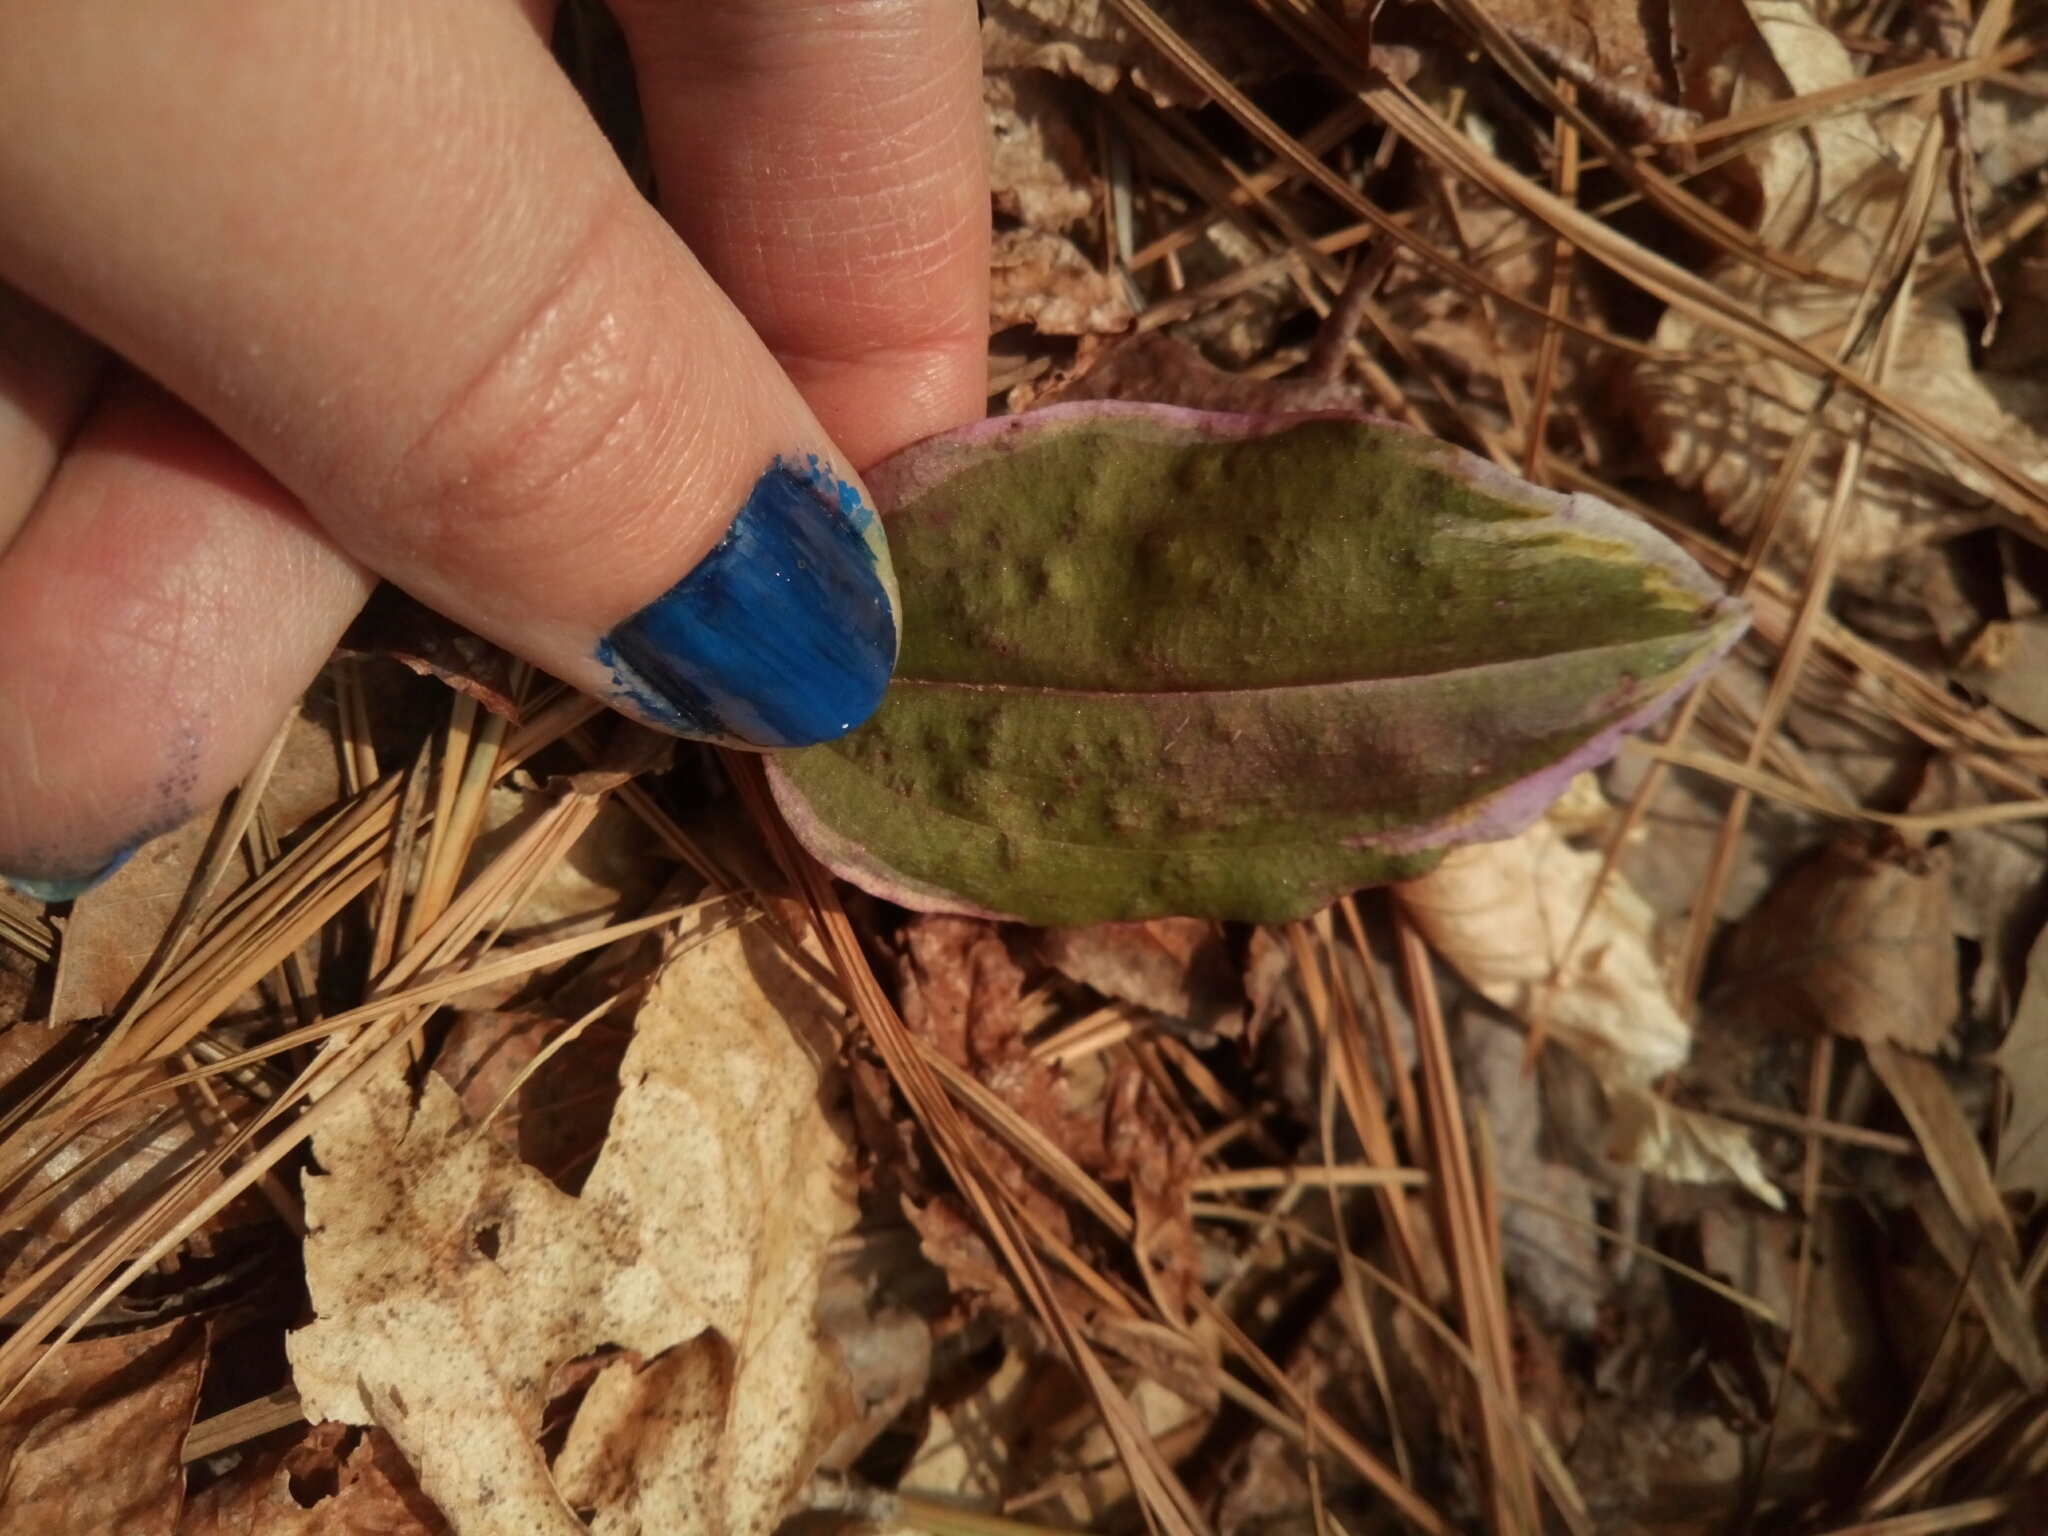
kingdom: Plantae
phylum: Tracheophyta
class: Liliopsida
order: Asparagales
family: Orchidaceae
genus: Tipularia
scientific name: Tipularia discolor
